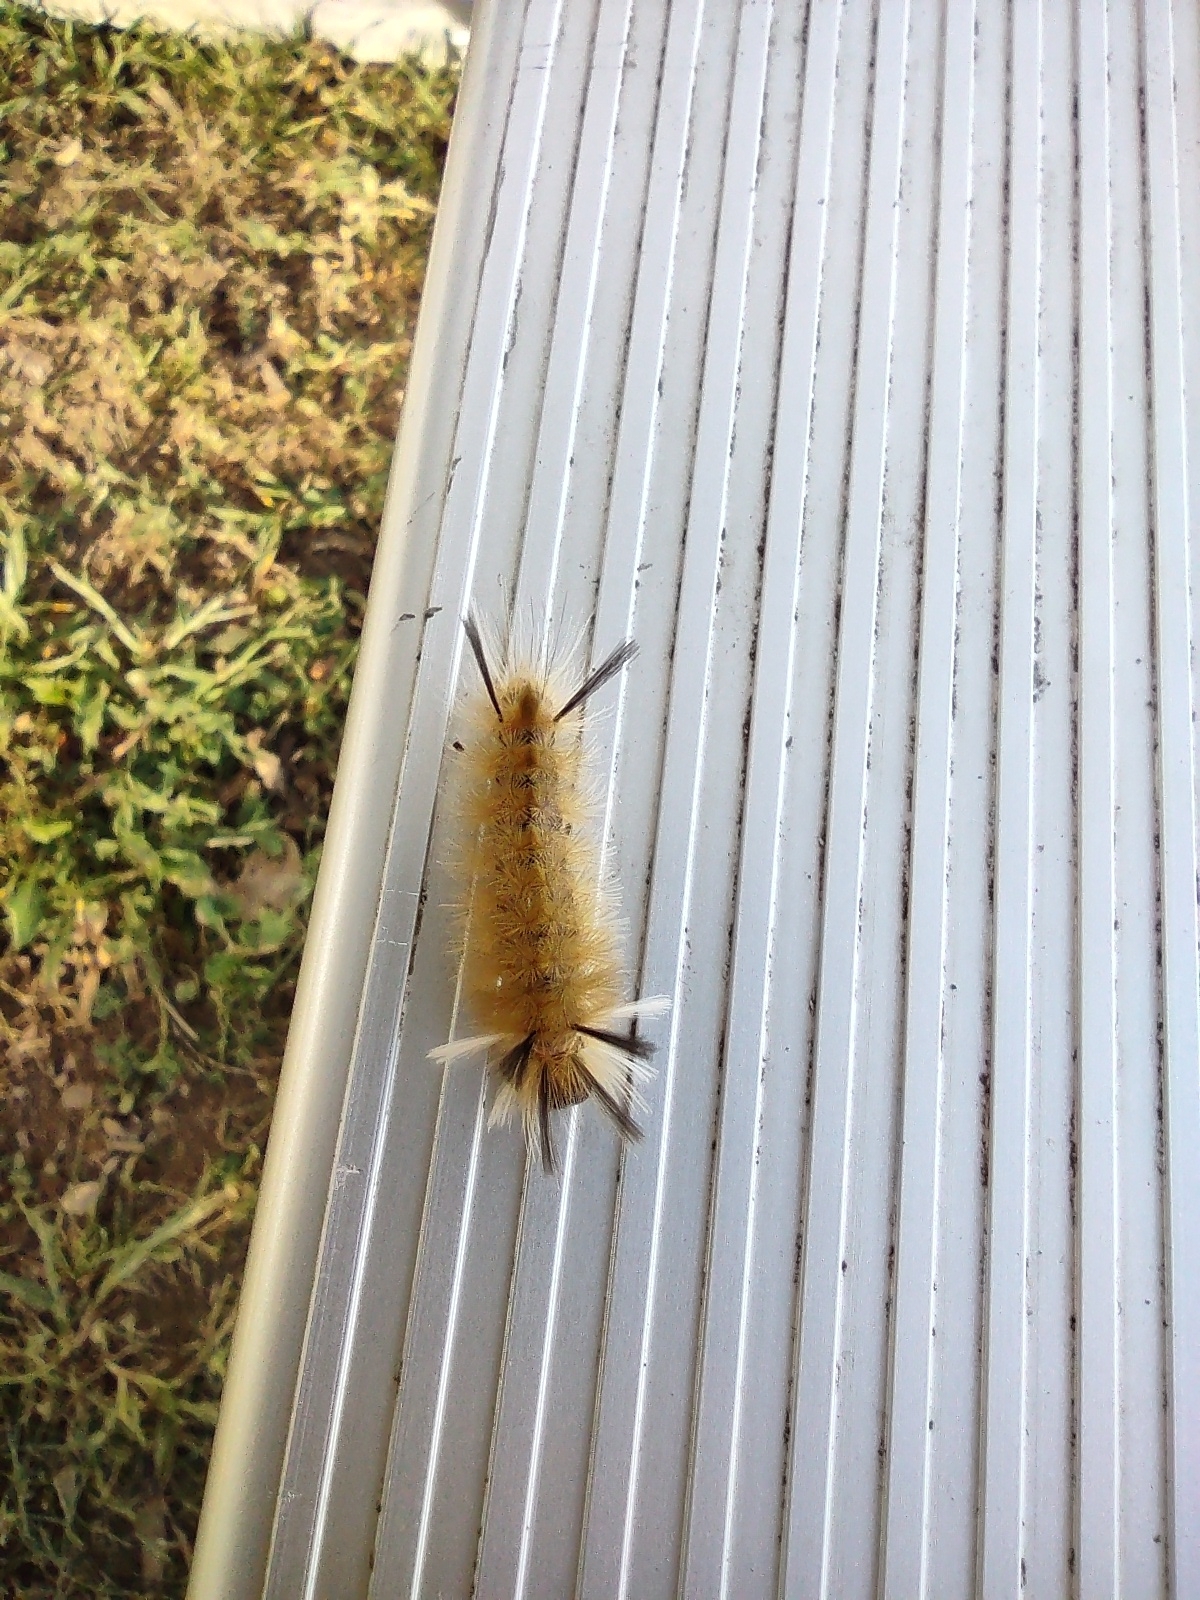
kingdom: Animalia
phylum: Arthropoda
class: Insecta
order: Lepidoptera
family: Erebidae
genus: Halysidota
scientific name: Halysidota tessellaris
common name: Banded tussock moth
